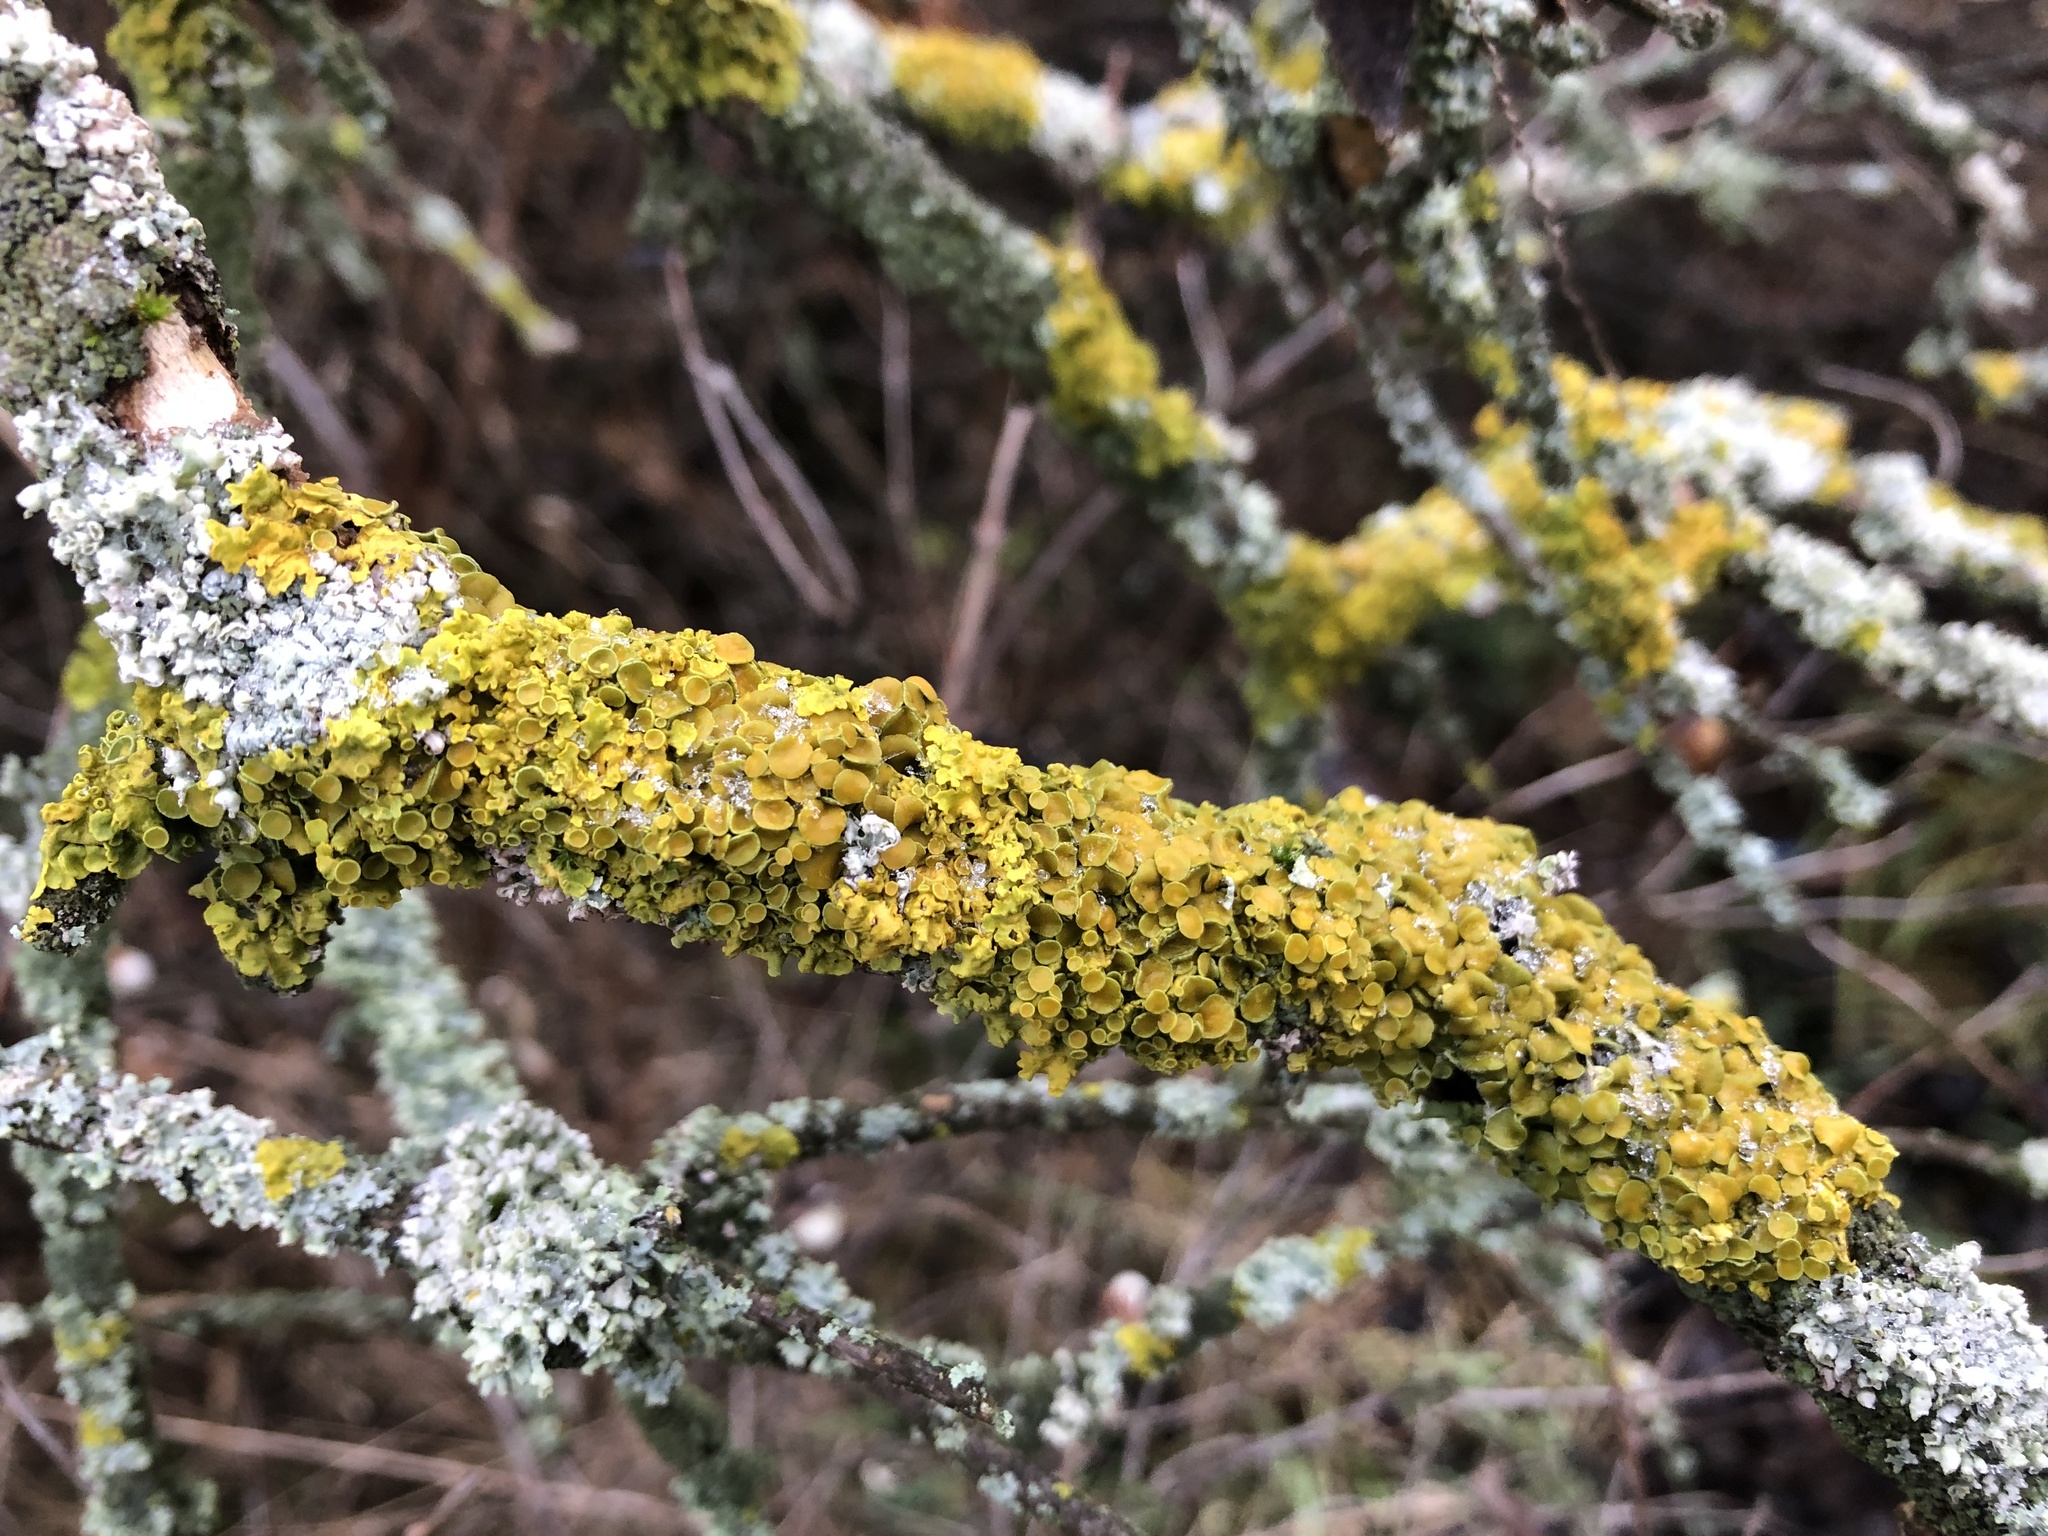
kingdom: Fungi
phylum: Ascomycota
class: Lecanoromycetes
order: Teloschistales
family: Teloschistaceae
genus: Xanthoria
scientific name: Xanthoria parietina
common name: Common orange lichen
